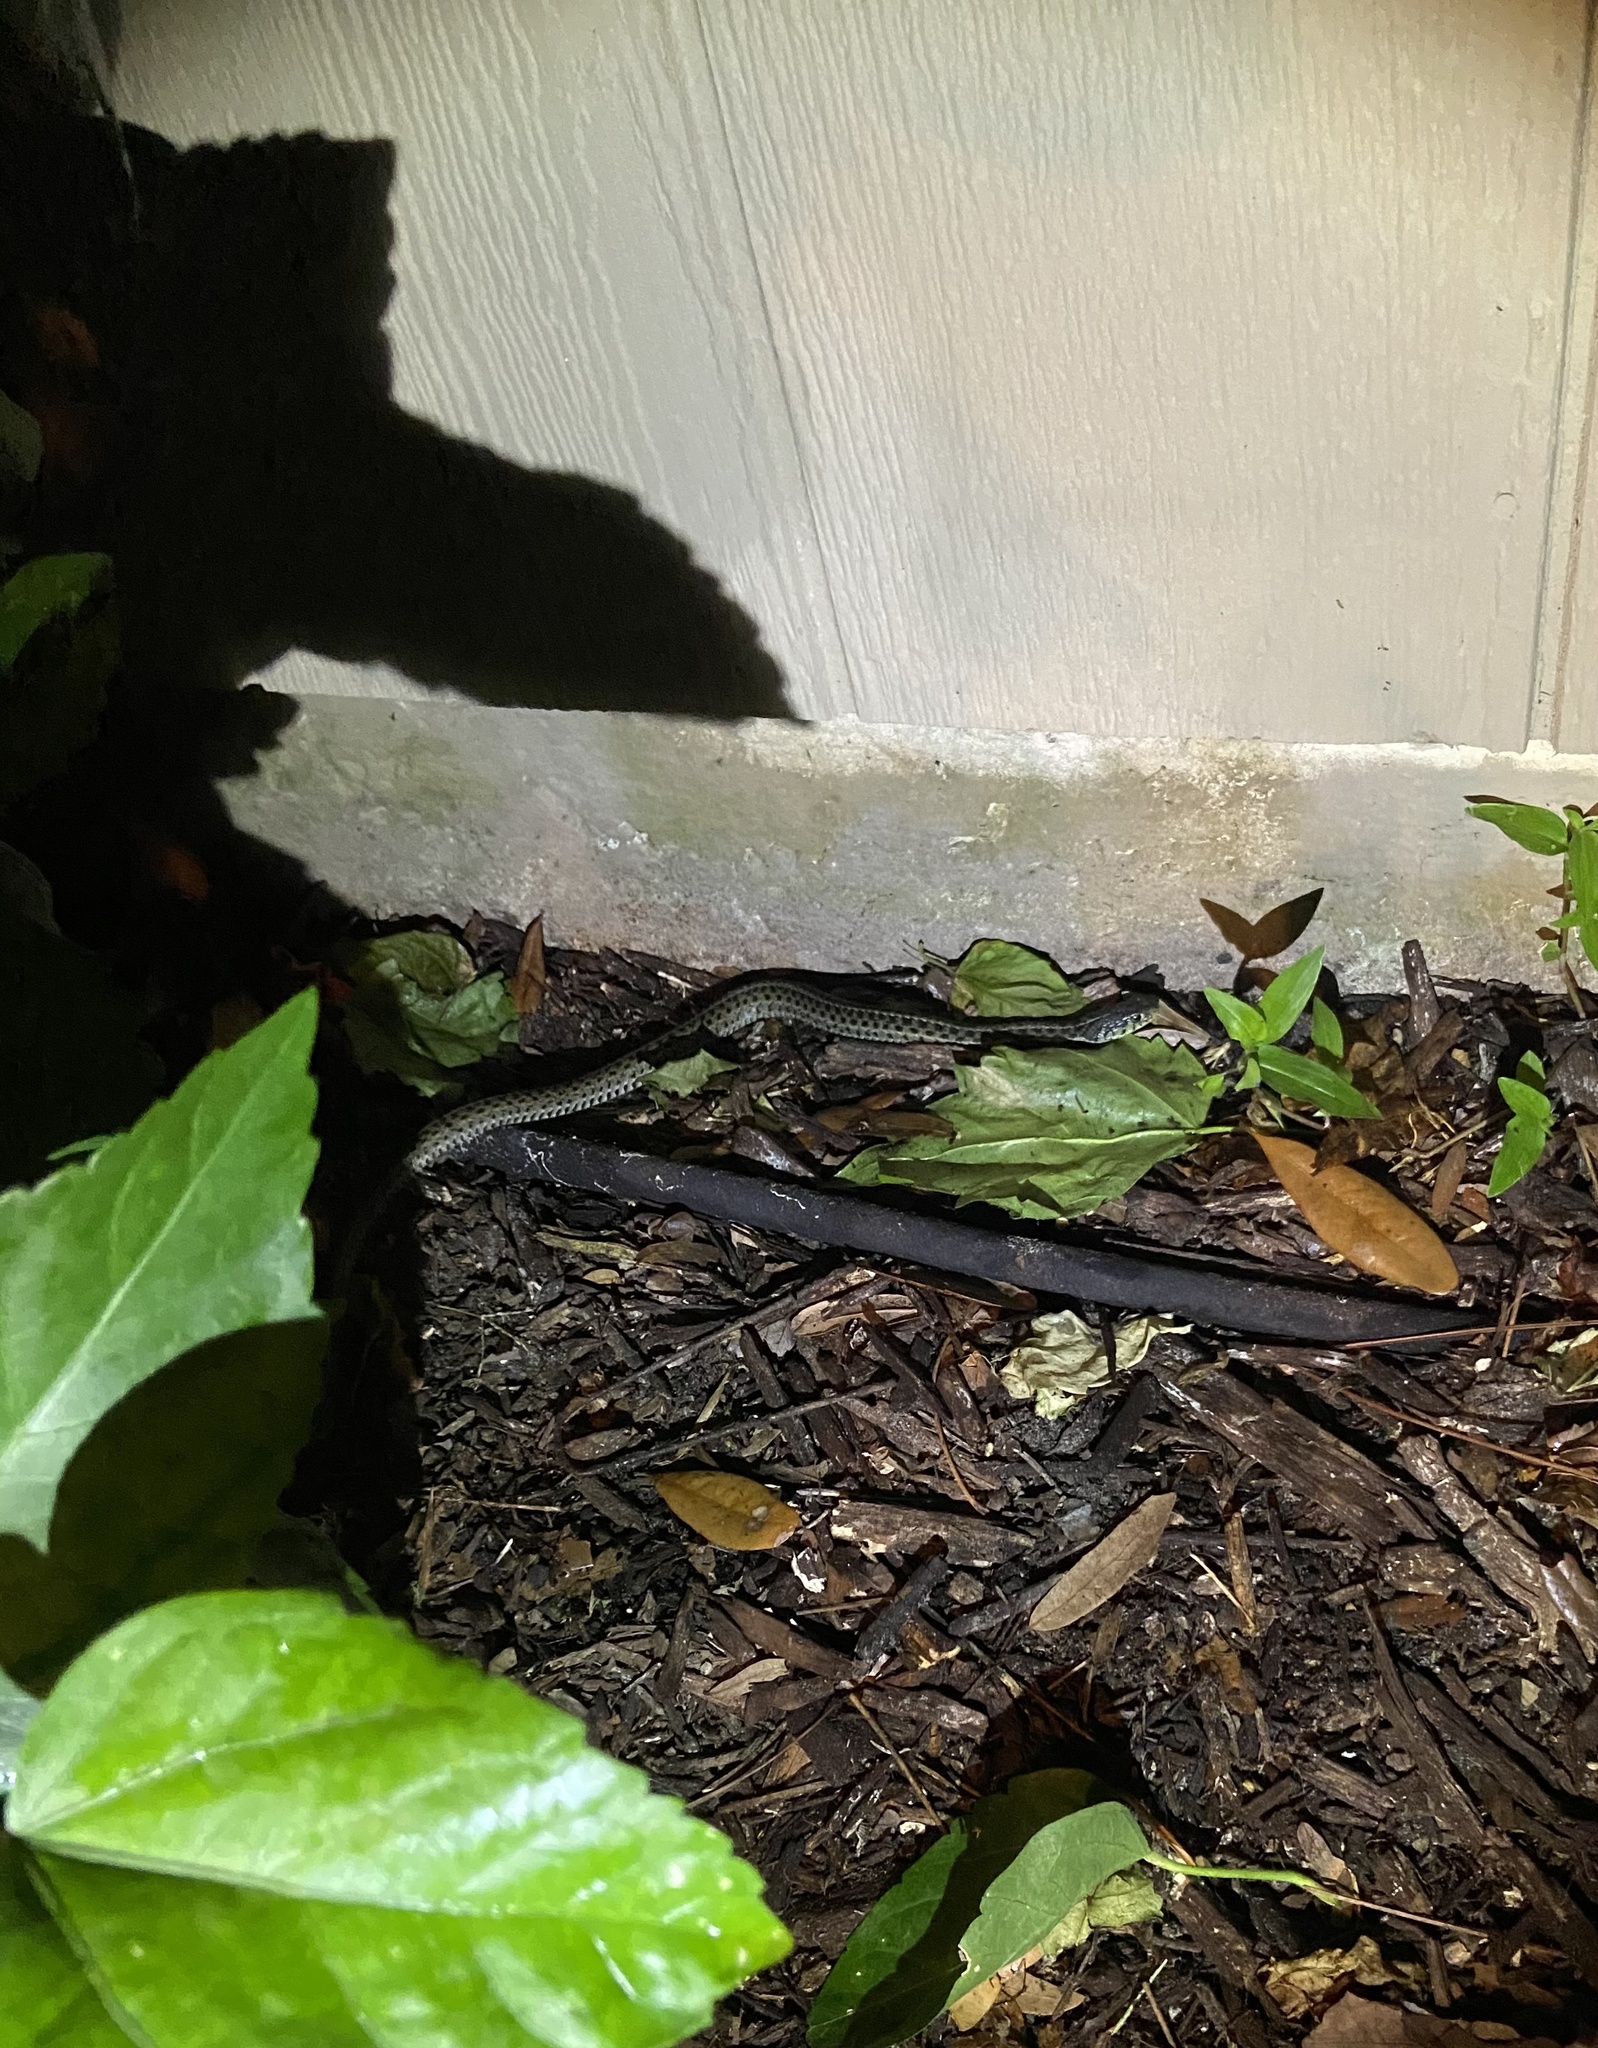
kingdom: Animalia
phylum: Chordata
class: Squamata
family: Colubridae
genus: Thamnophis
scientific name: Thamnophis sirtalis
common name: Common garter snake
